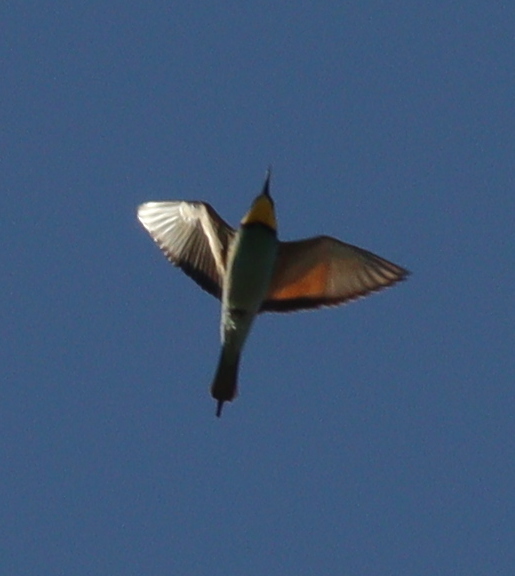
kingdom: Animalia
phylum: Chordata
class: Aves
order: Coraciiformes
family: Meropidae
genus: Merops
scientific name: Merops apiaster
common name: European bee-eater
